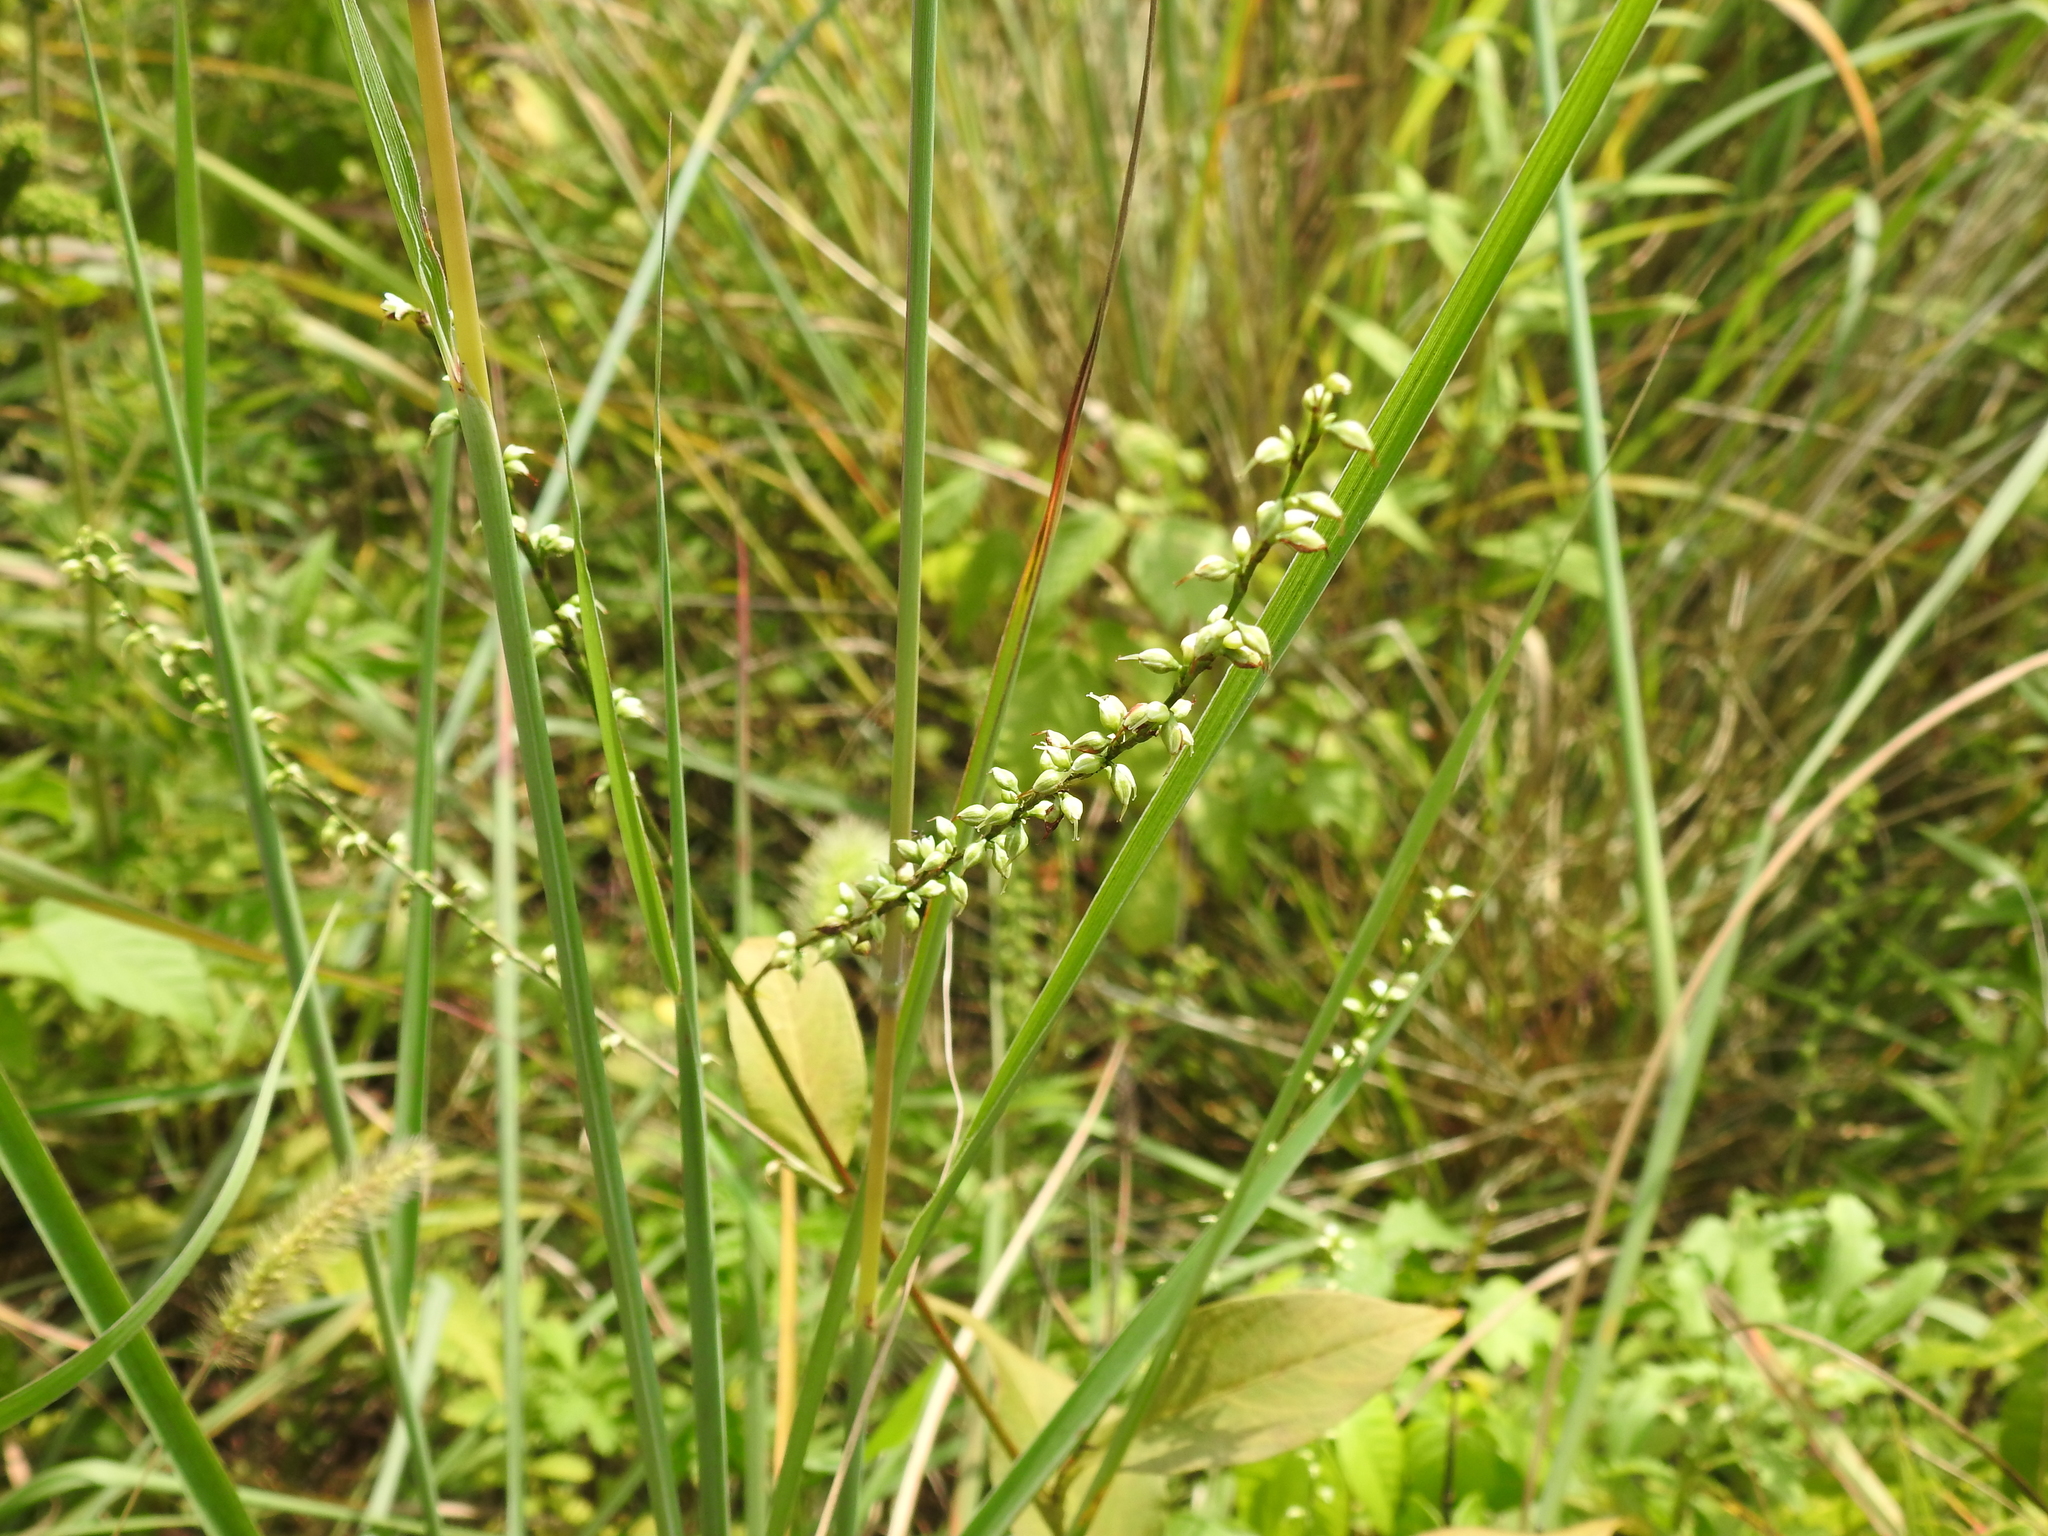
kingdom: Plantae
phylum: Tracheophyta
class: Magnoliopsida
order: Caryophyllales
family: Polygonaceae
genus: Persicaria
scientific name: Persicaria virginiana
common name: Jumpseed
